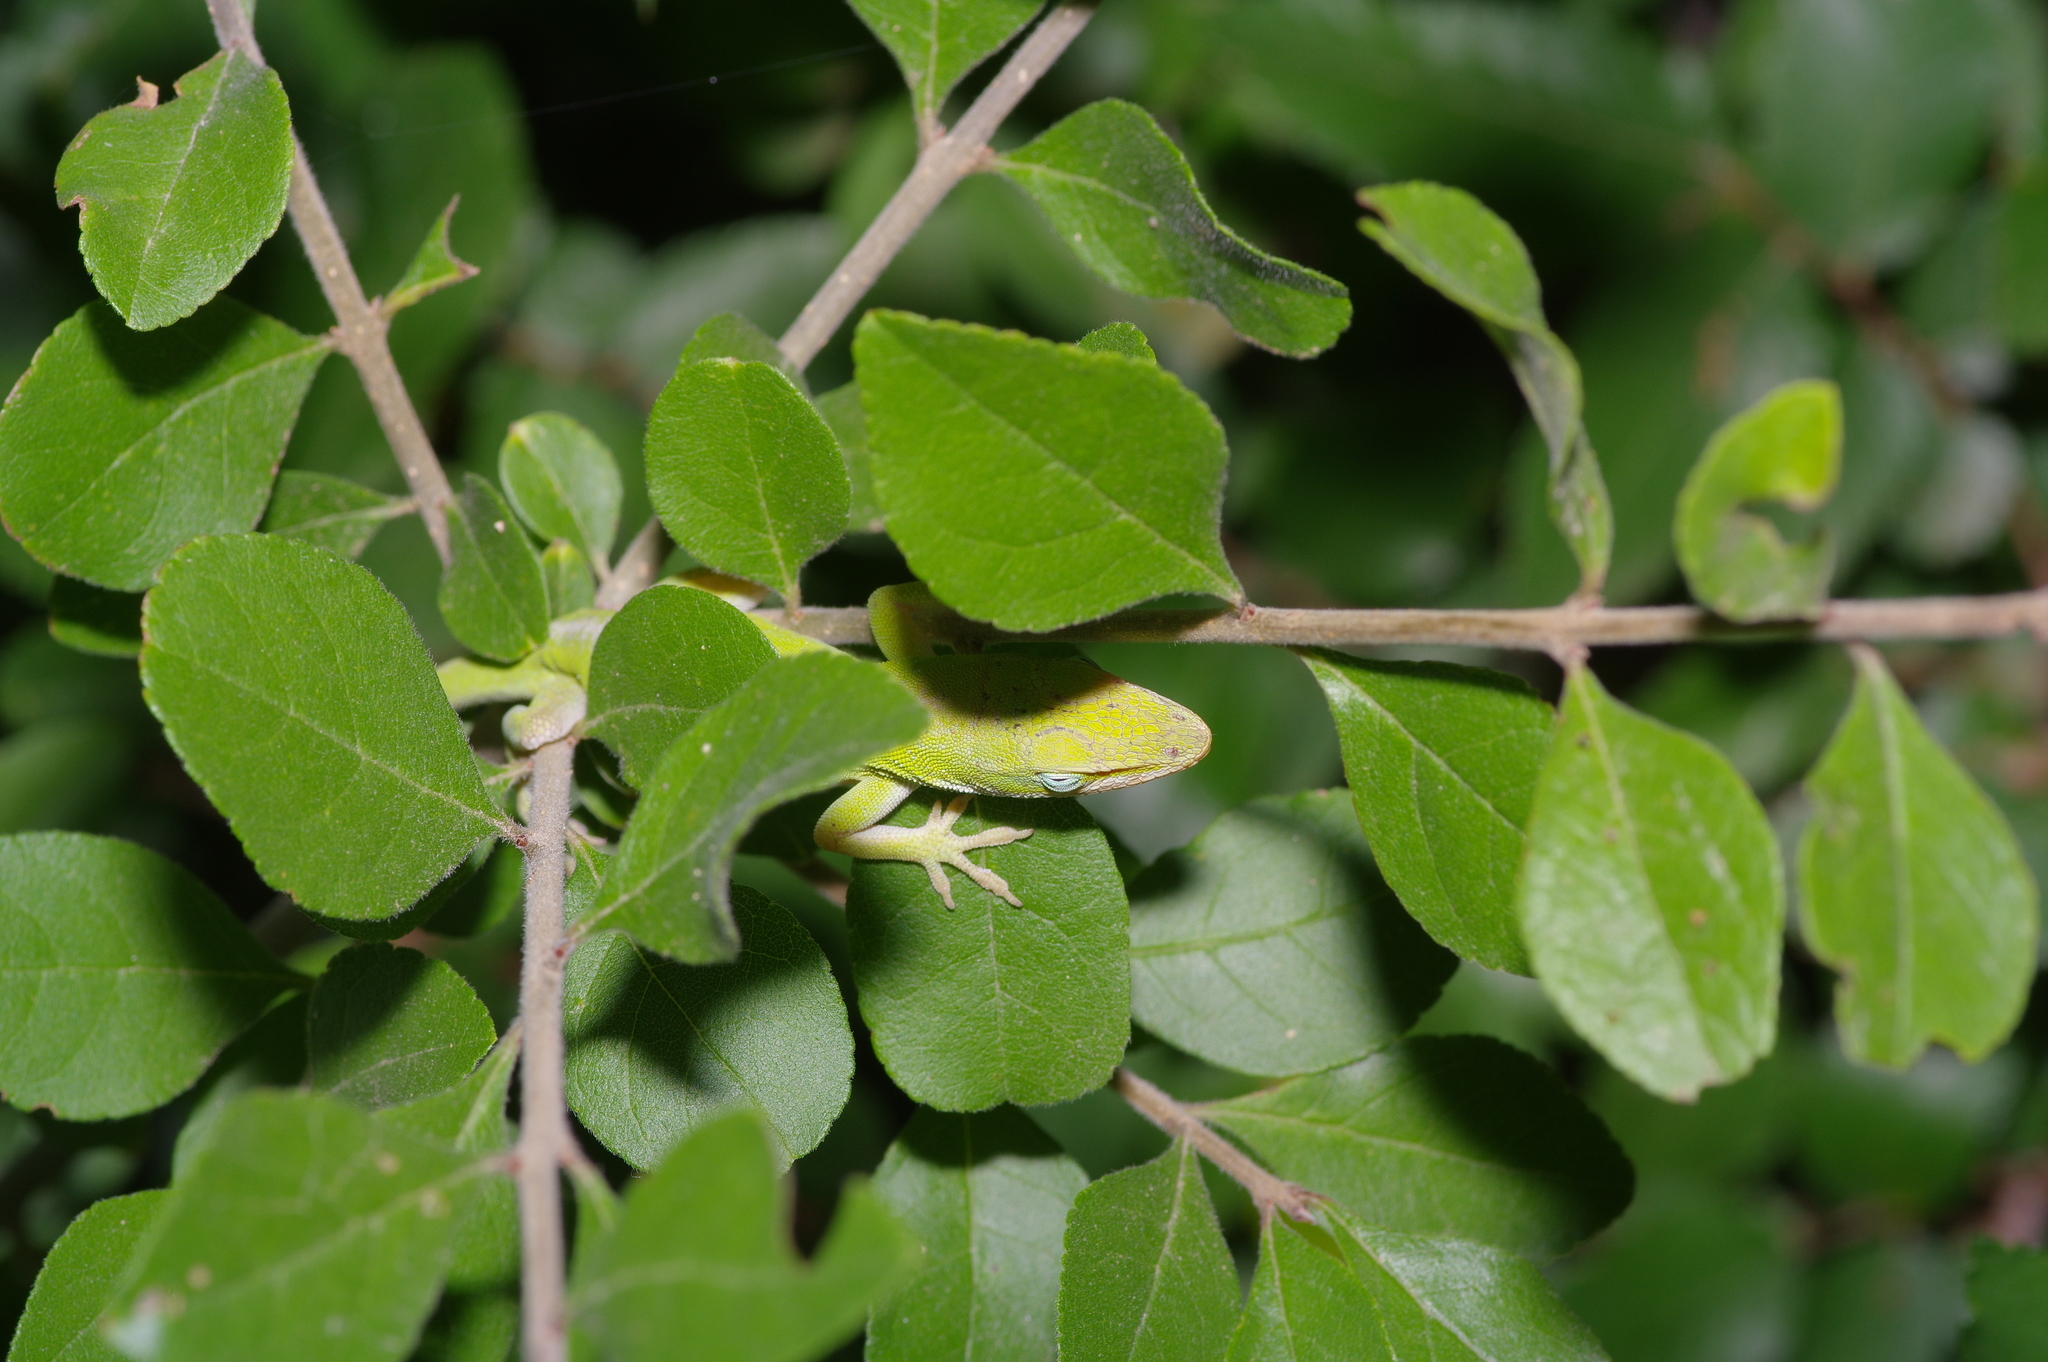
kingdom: Animalia
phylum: Chordata
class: Squamata
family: Dactyloidae
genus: Anolis
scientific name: Anolis carolinensis
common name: Green anole
